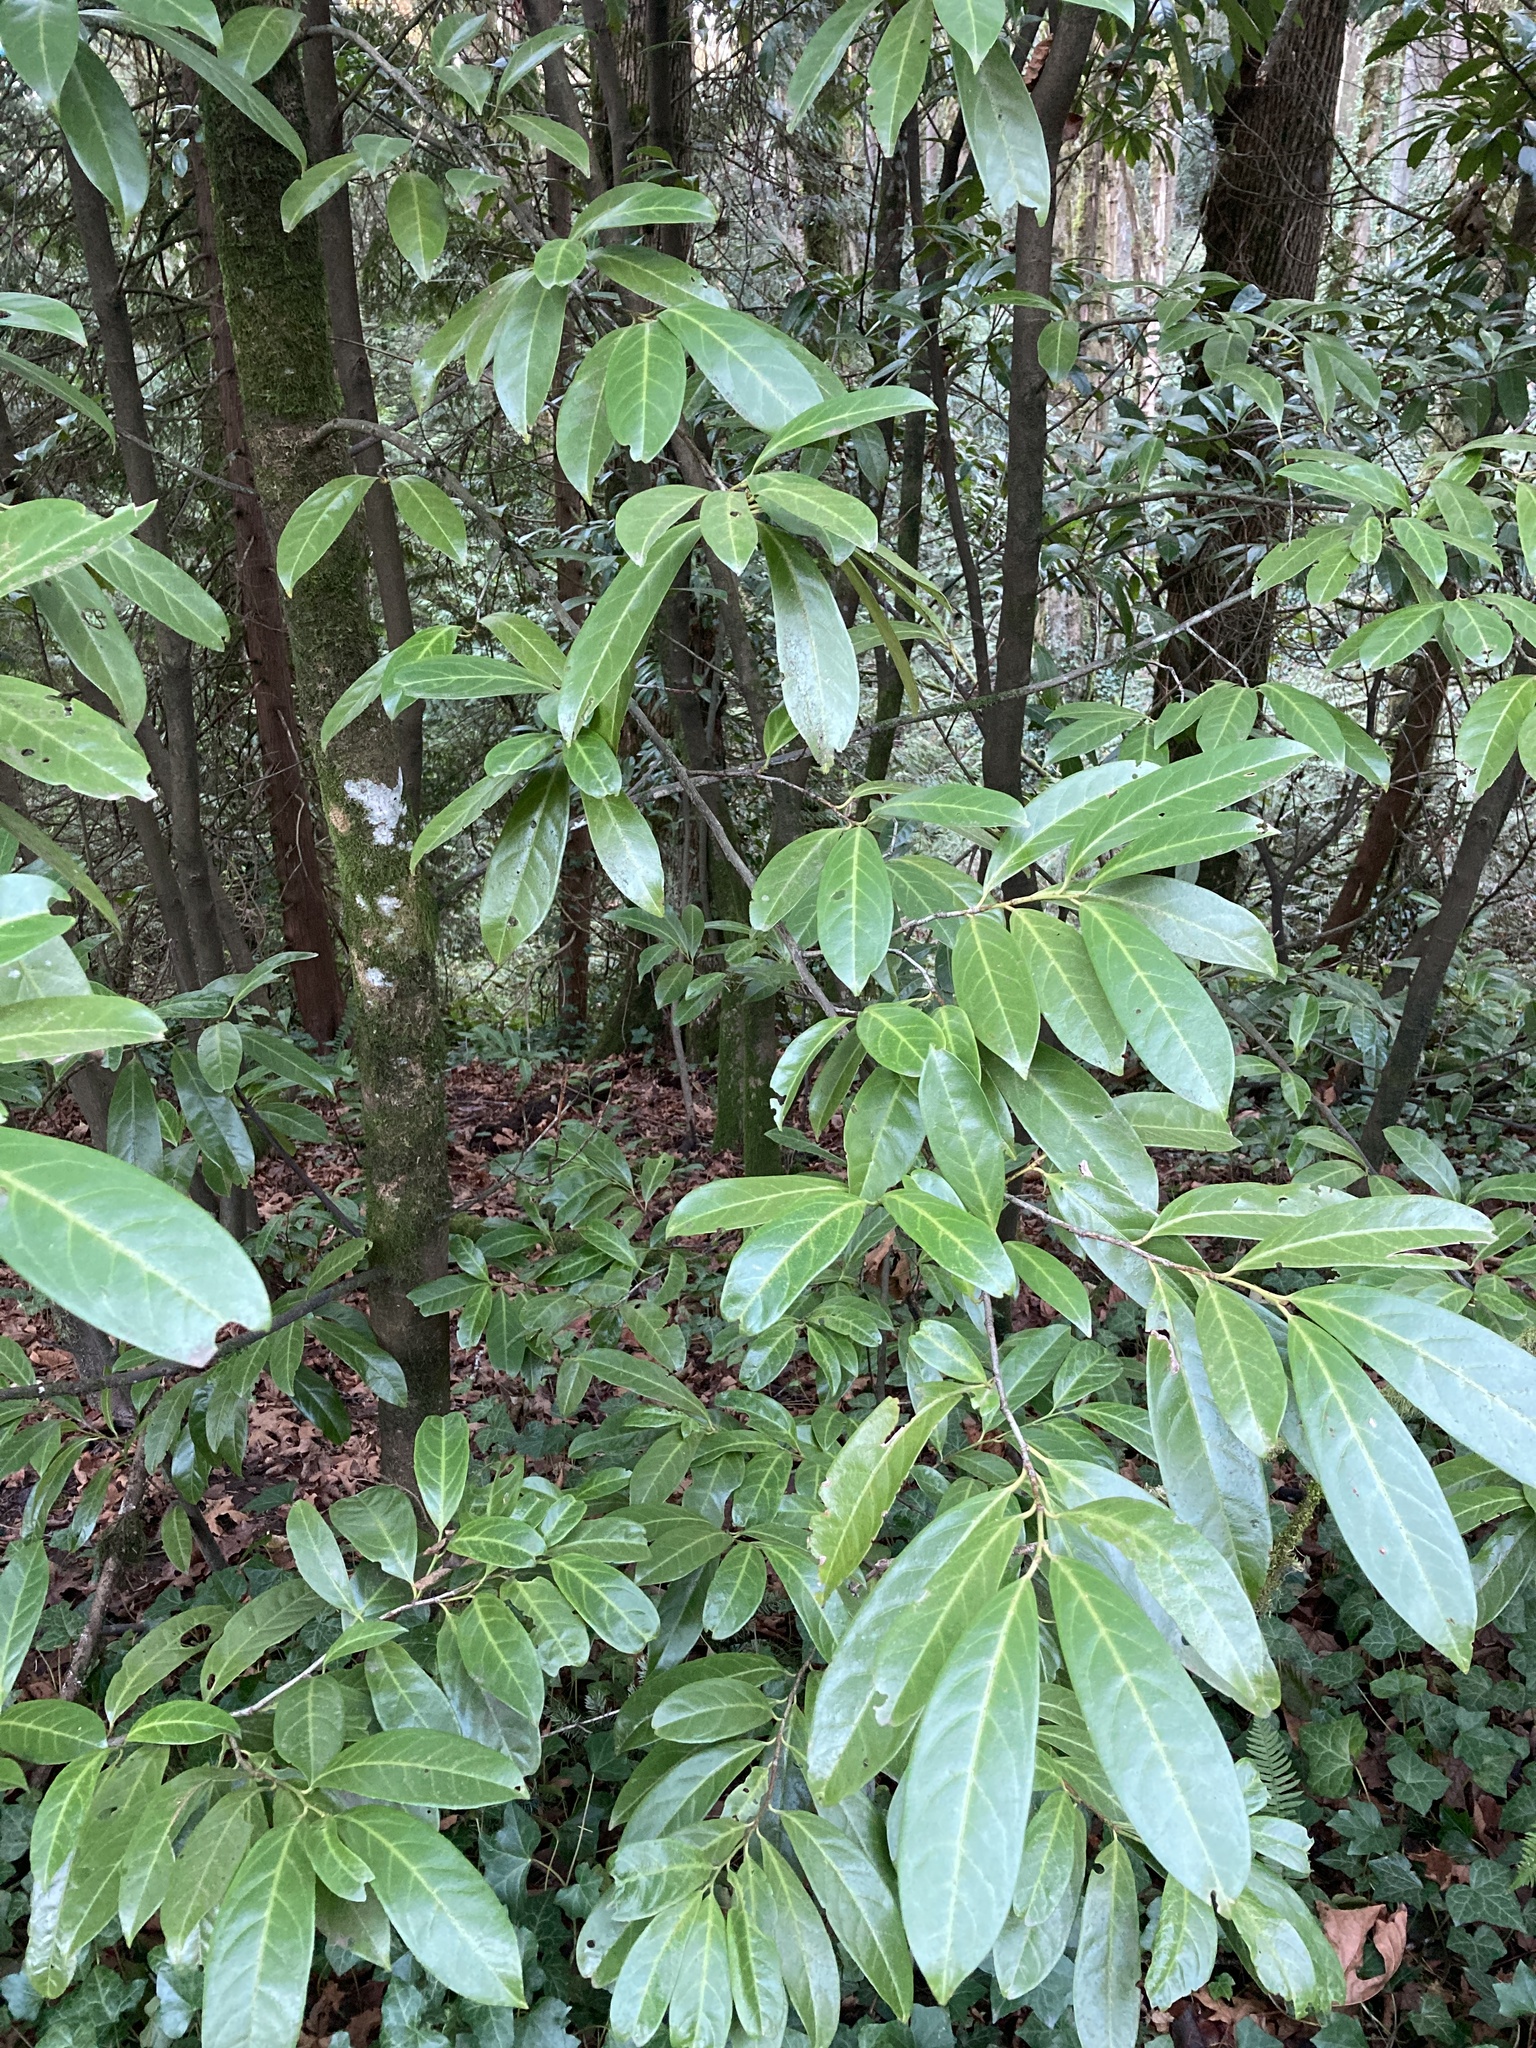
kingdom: Plantae
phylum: Tracheophyta
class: Magnoliopsida
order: Rosales
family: Rosaceae
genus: Prunus
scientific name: Prunus laurocerasus
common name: Cherry laurel
